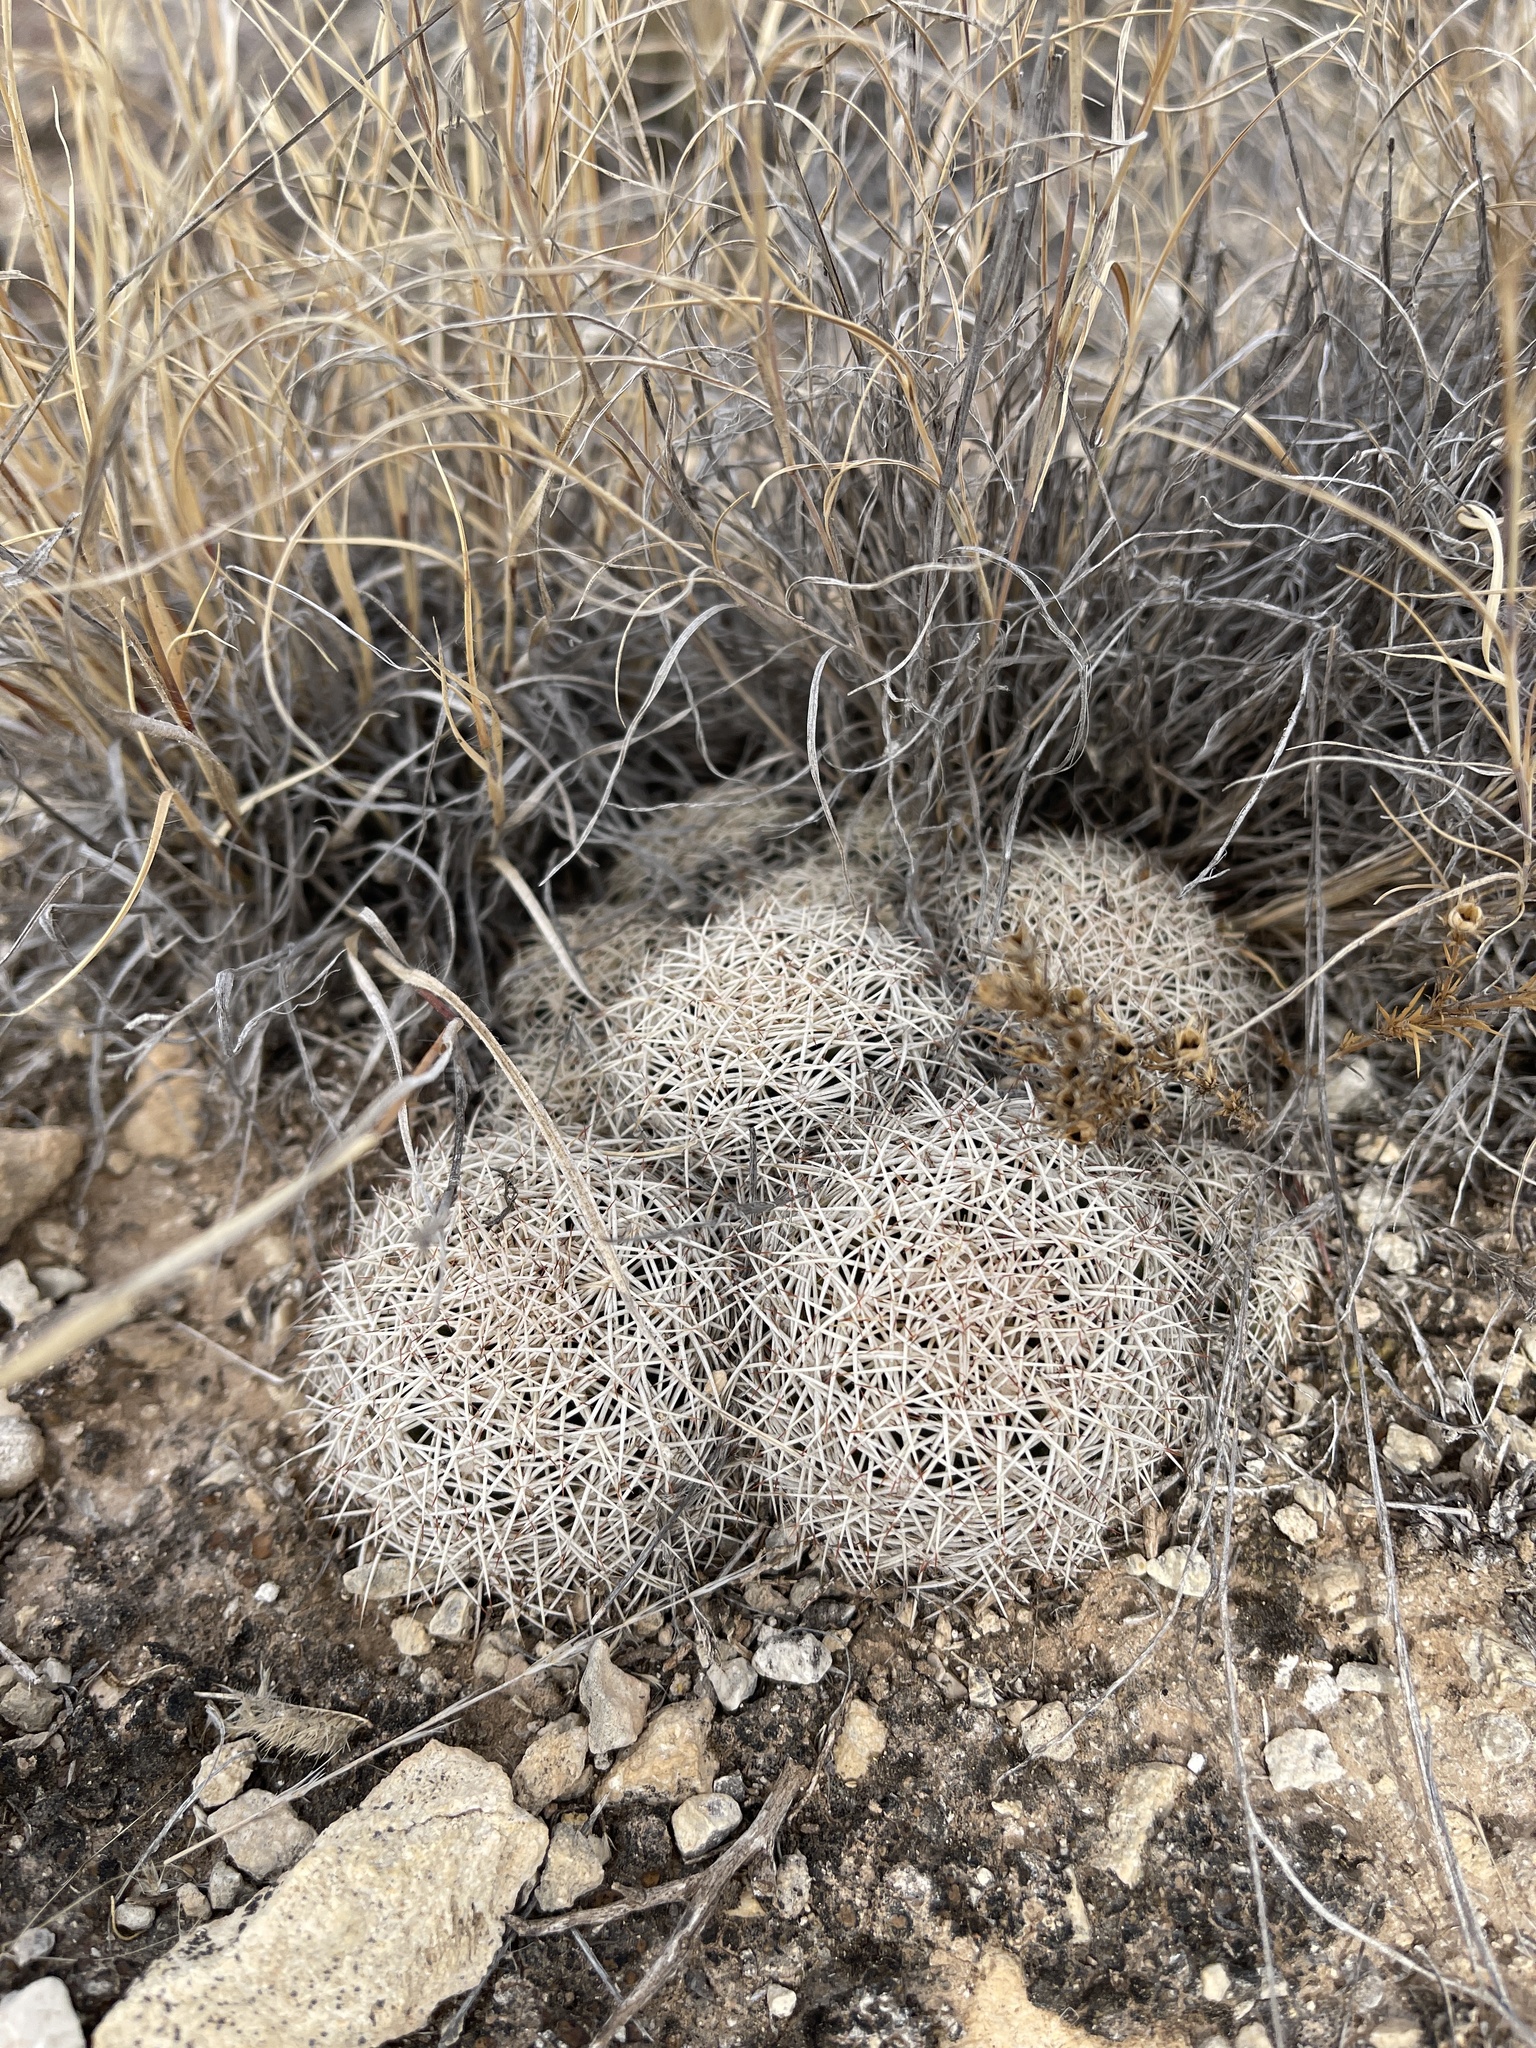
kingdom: Plantae
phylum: Tracheophyta
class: Magnoliopsida
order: Caryophyllales
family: Cactaceae
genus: Coryphantha
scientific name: Coryphantha echinus
